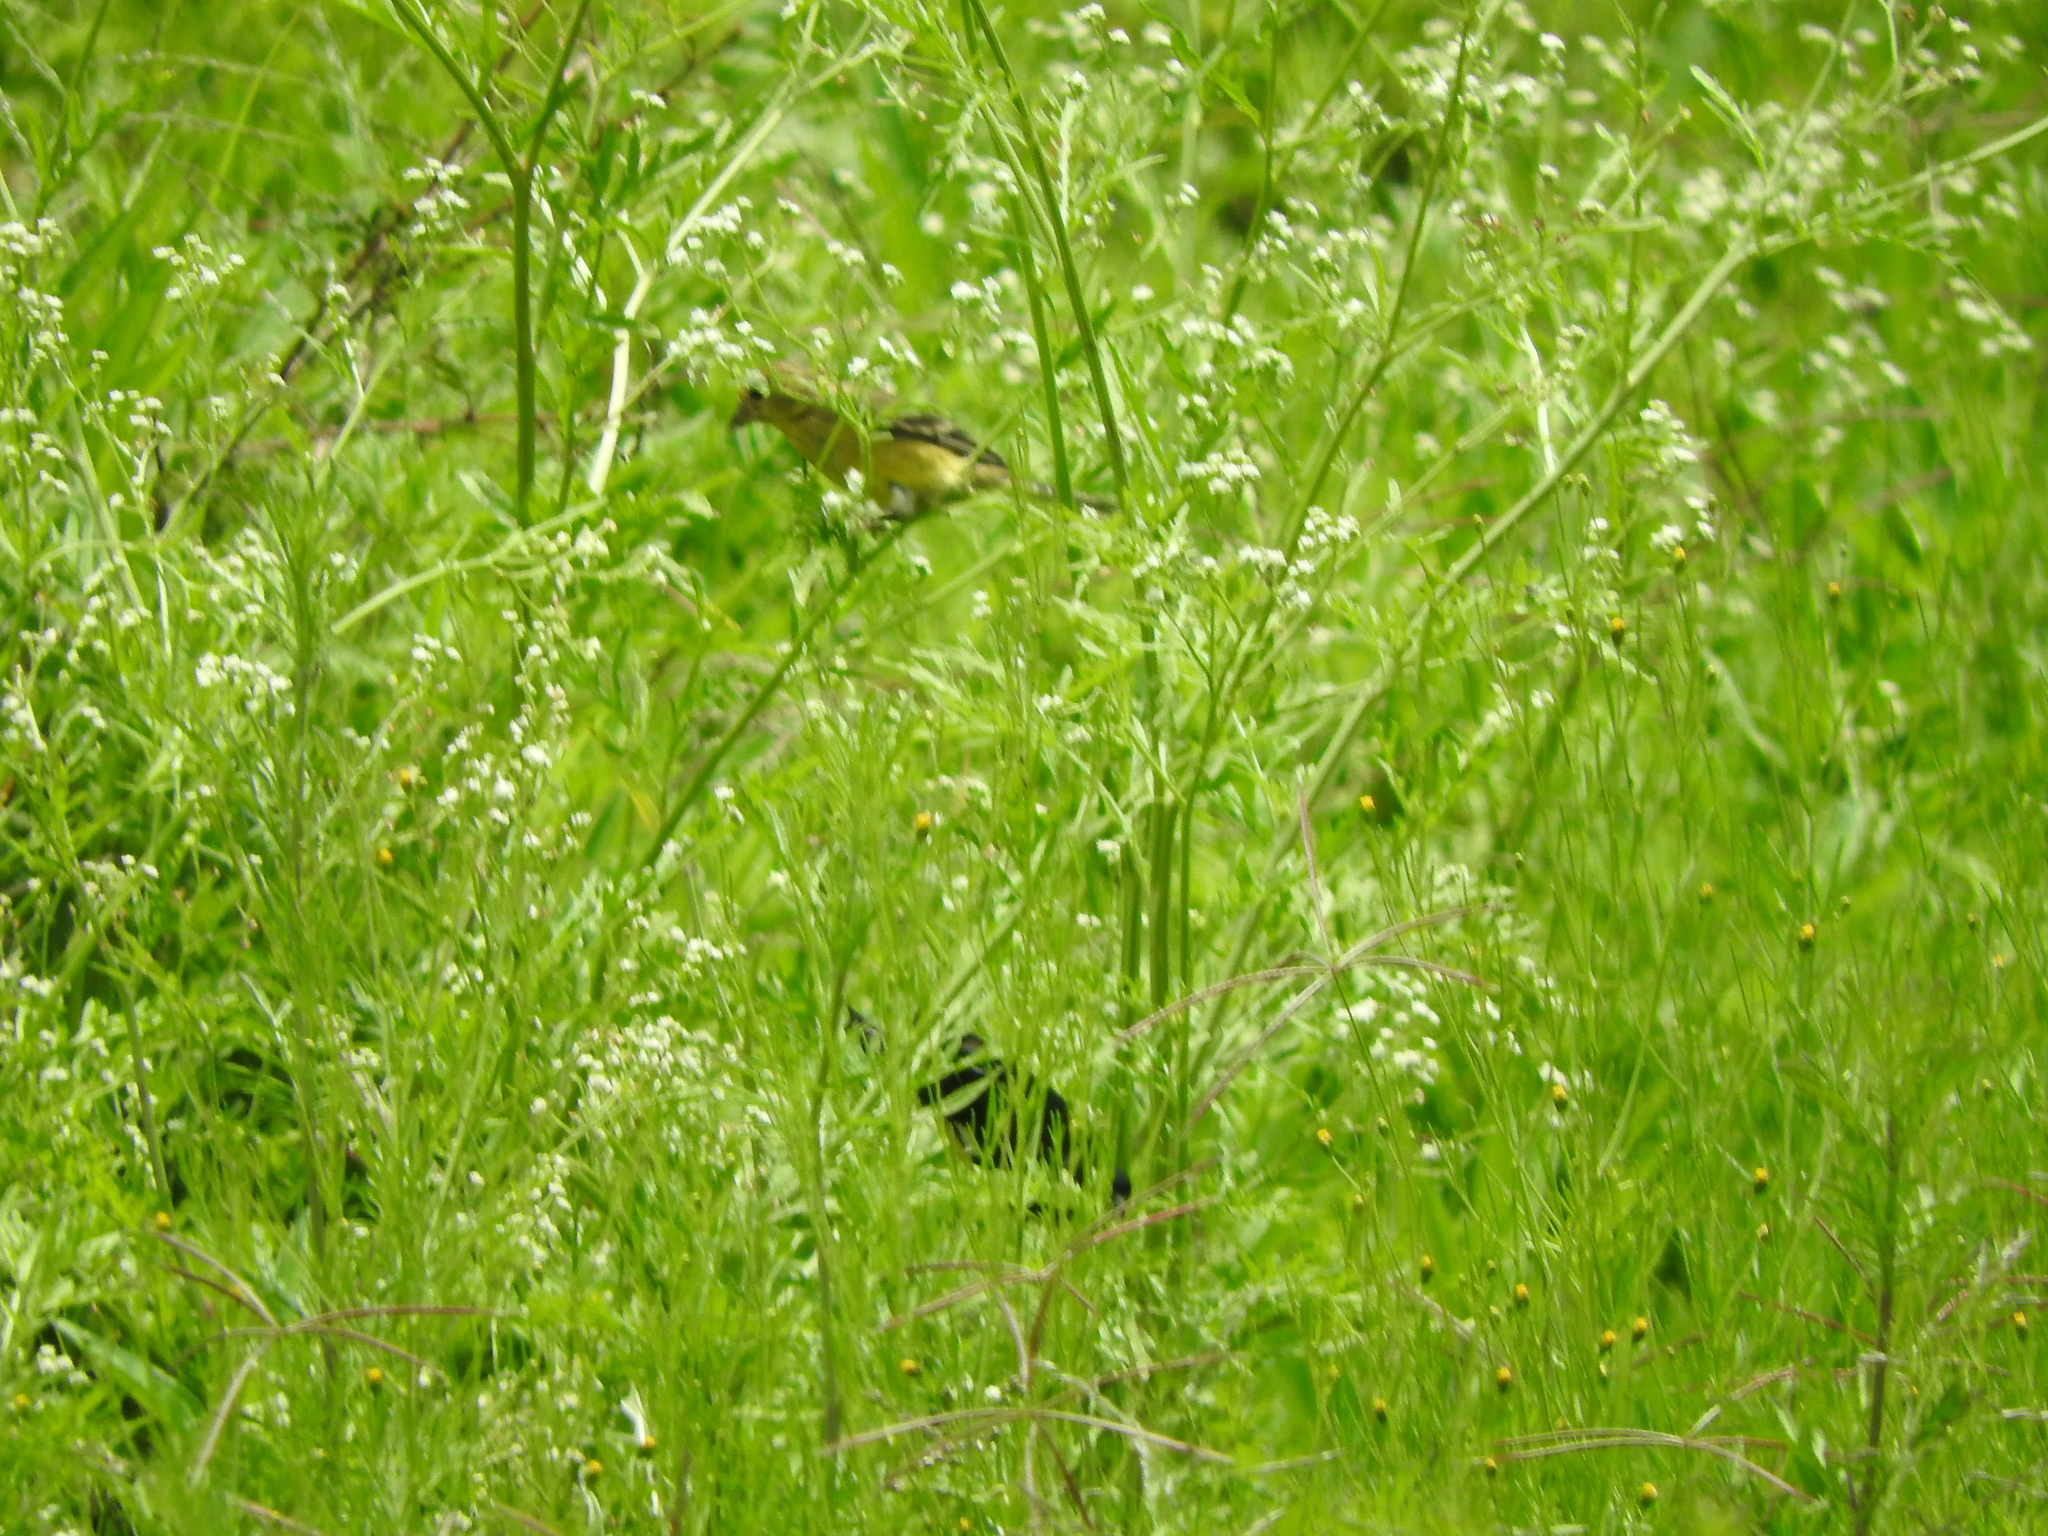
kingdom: Animalia
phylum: Chordata
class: Aves
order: Passeriformes
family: Fringillidae
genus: Spinus
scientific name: Spinus psaltria
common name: Lesser goldfinch
